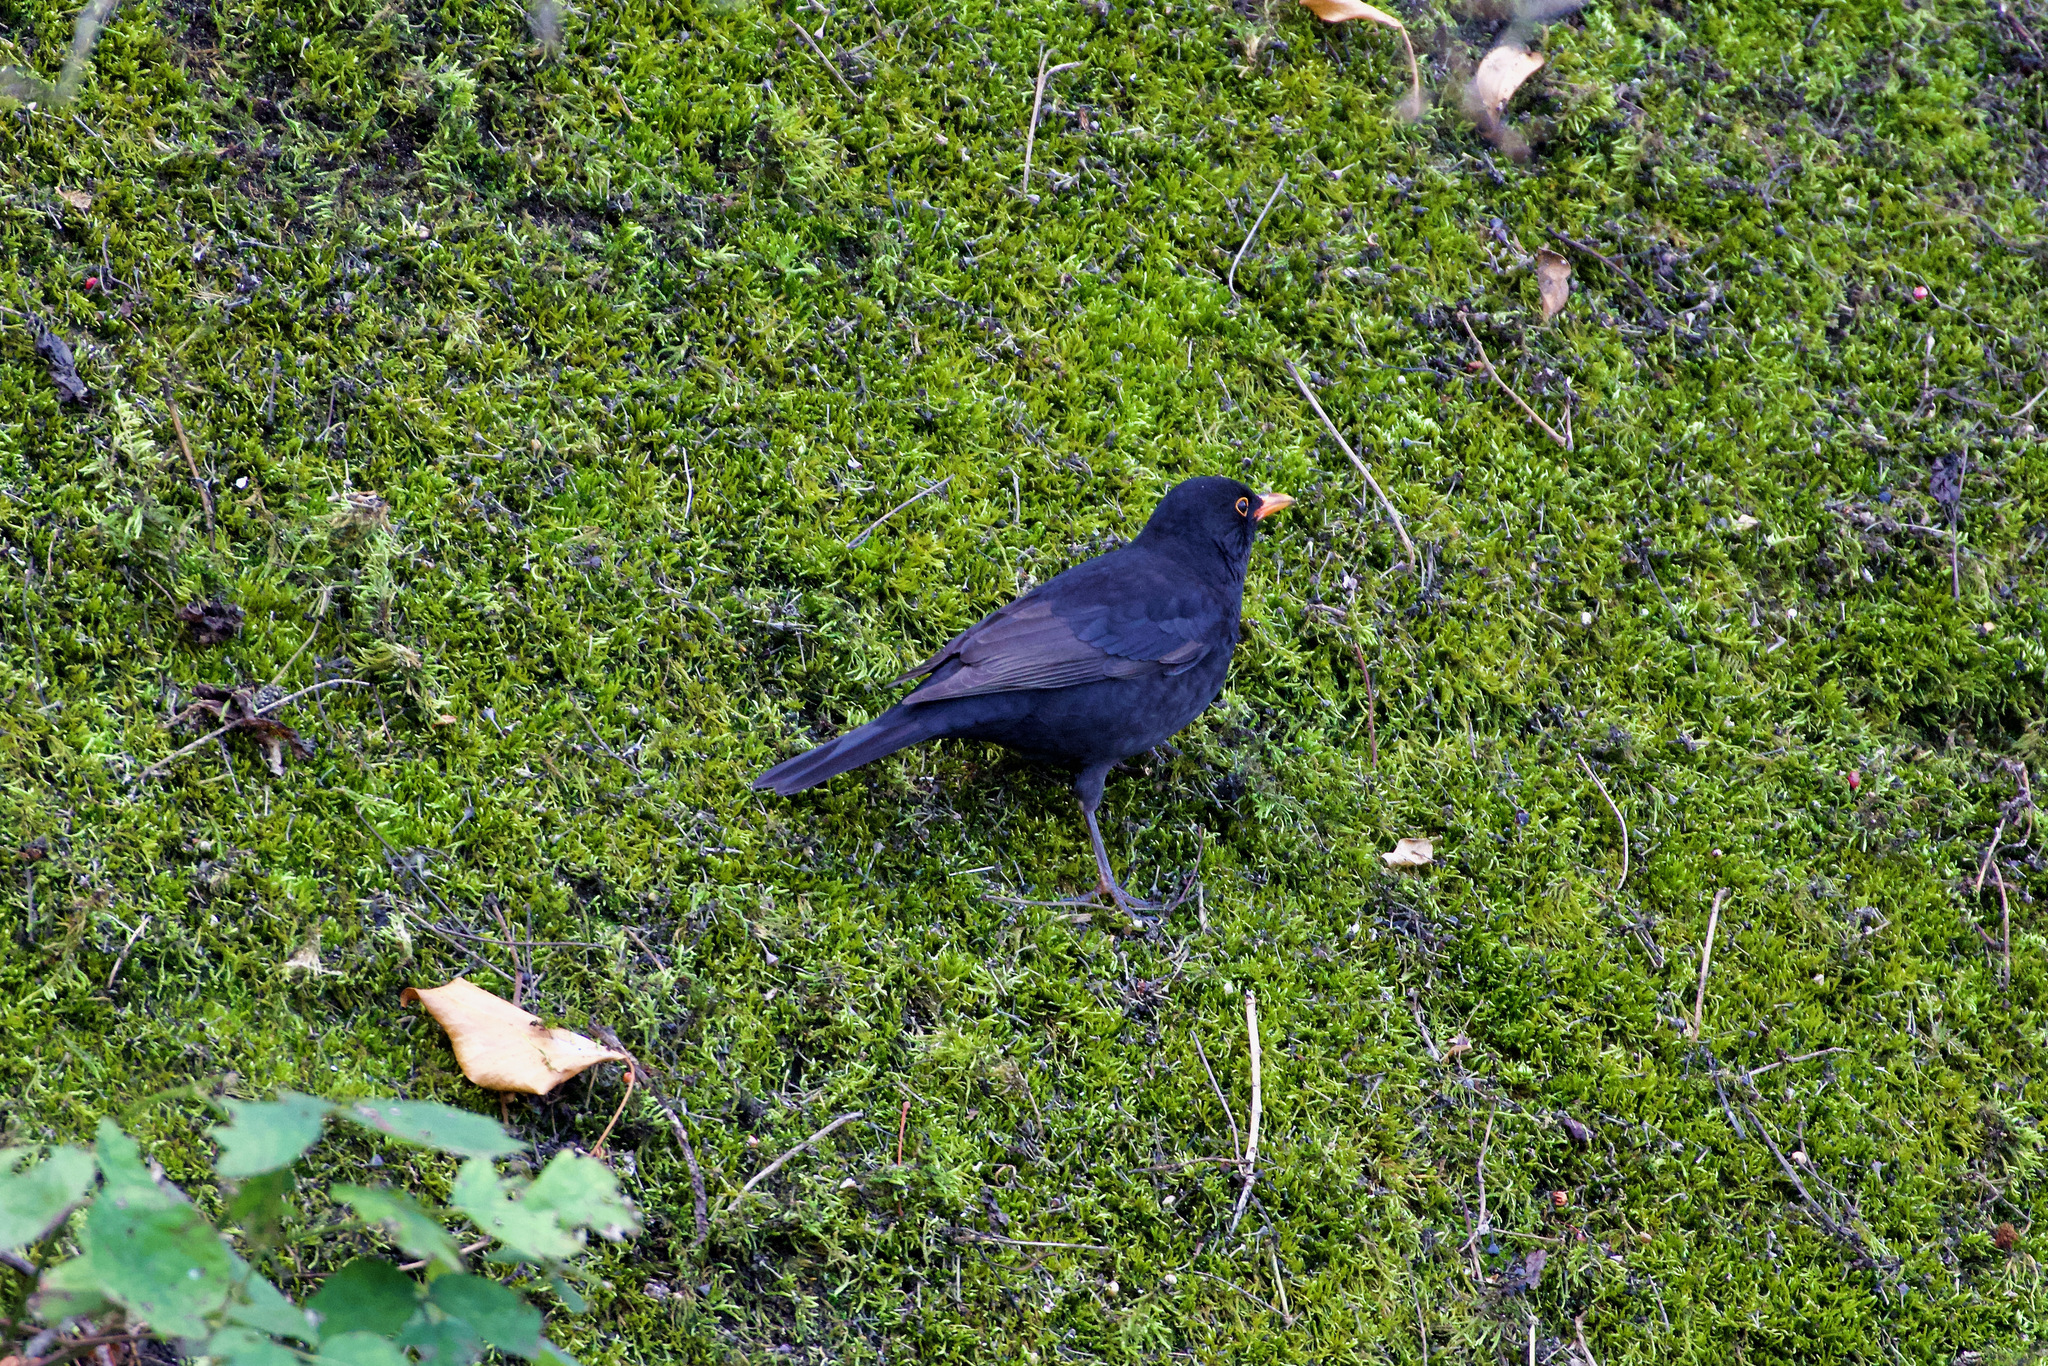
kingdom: Animalia
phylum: Chordata
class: Aves
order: Passeriformes
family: Turdidae
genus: Turdus
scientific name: Turdus merula
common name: Common blackbird
